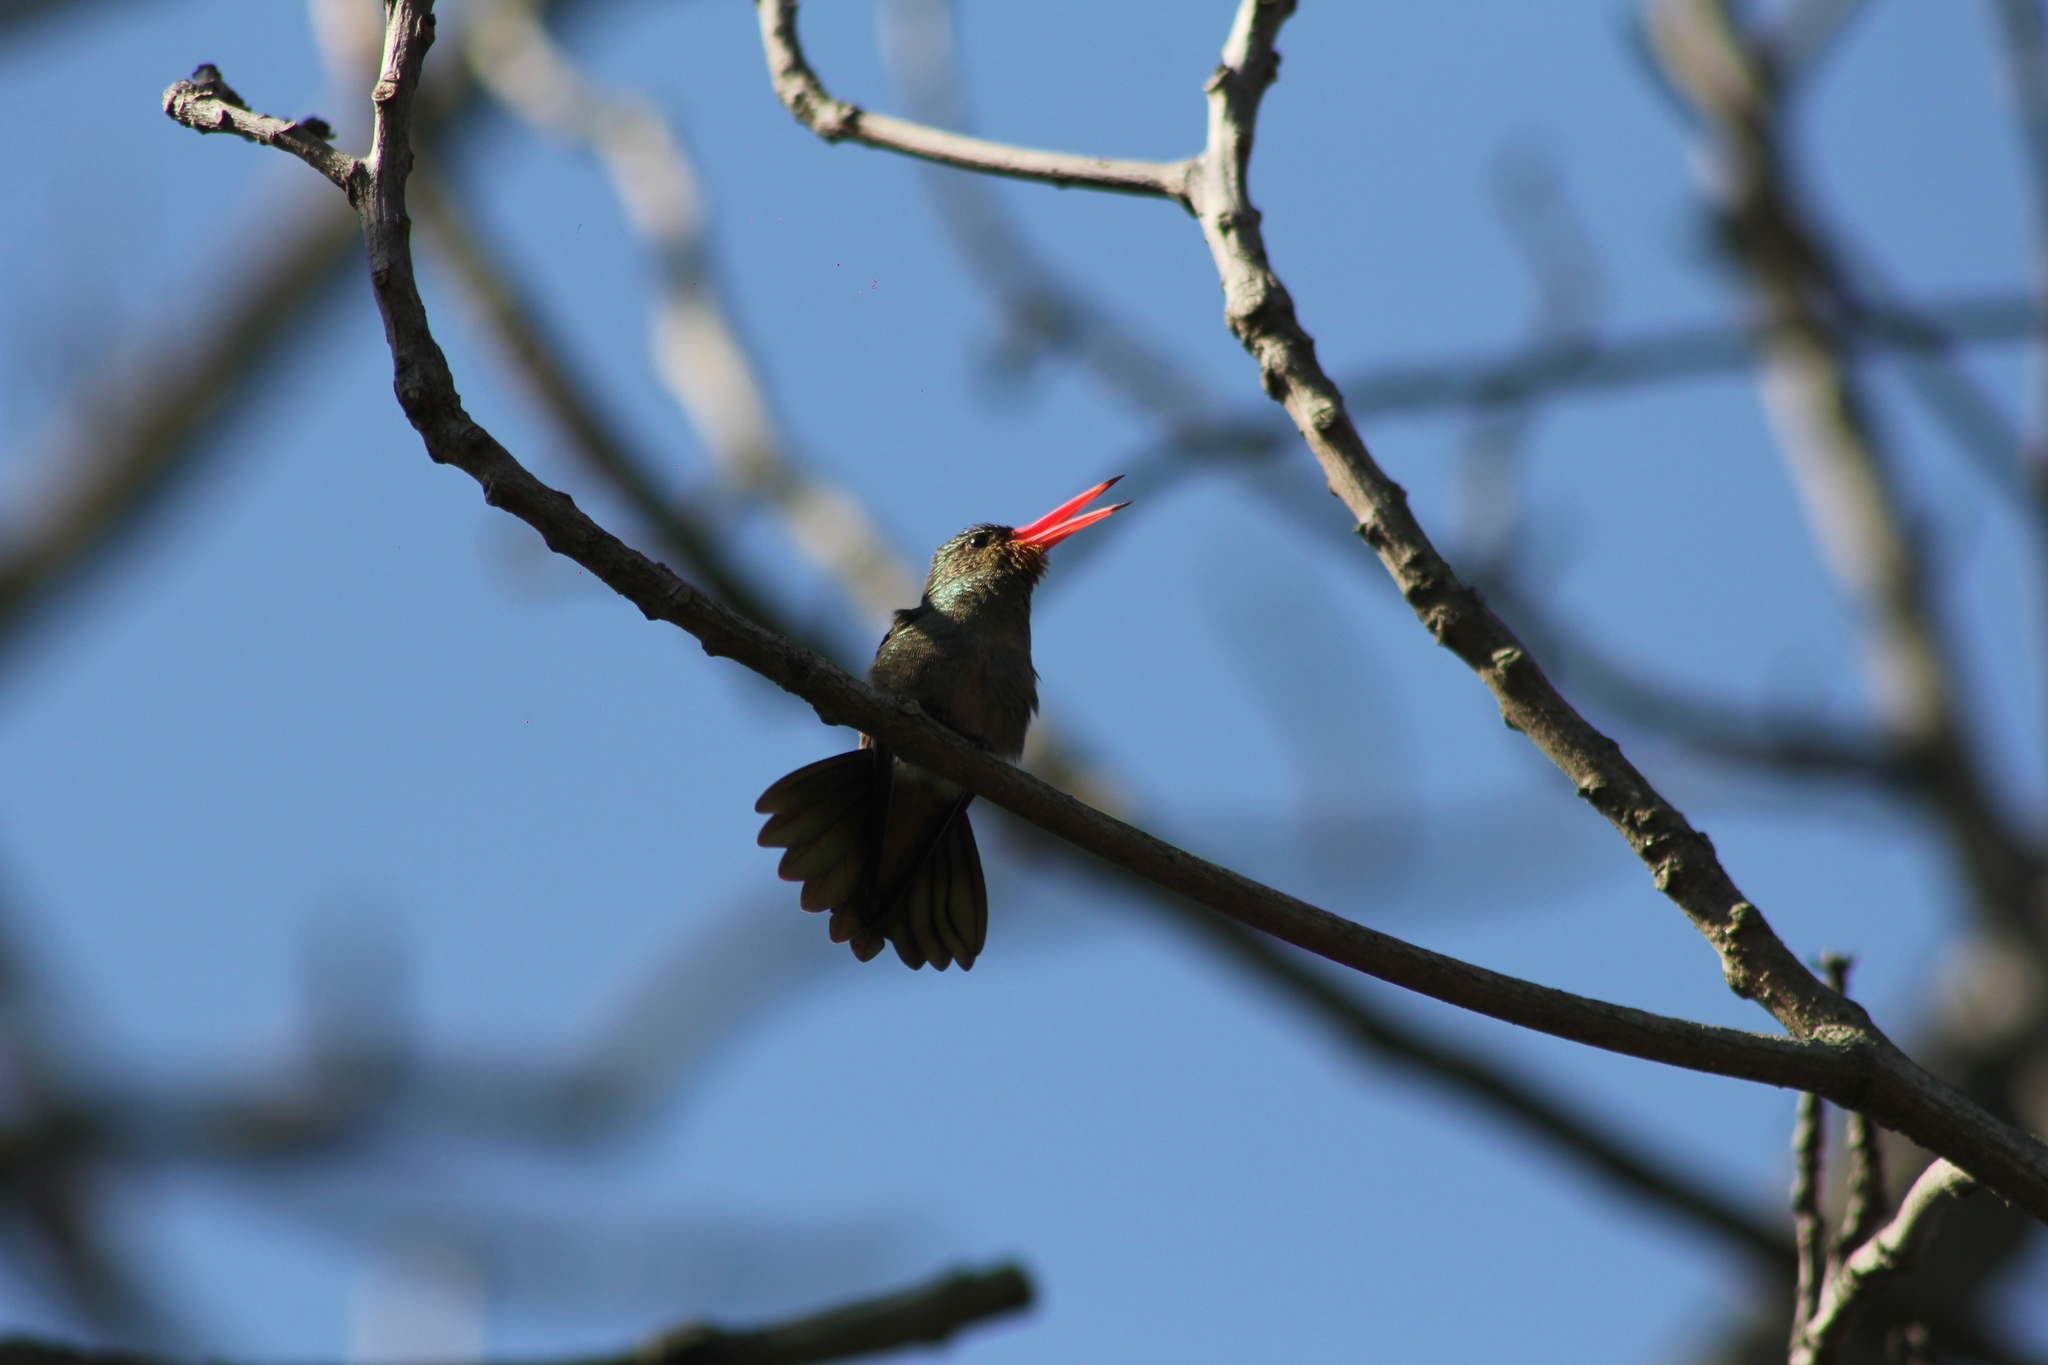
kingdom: Animalia
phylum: Chordata
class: Aves
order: Apodiformes
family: Trochilidae
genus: Hylocharis
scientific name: Hylocharis chrysura
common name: Gilded sapphire
